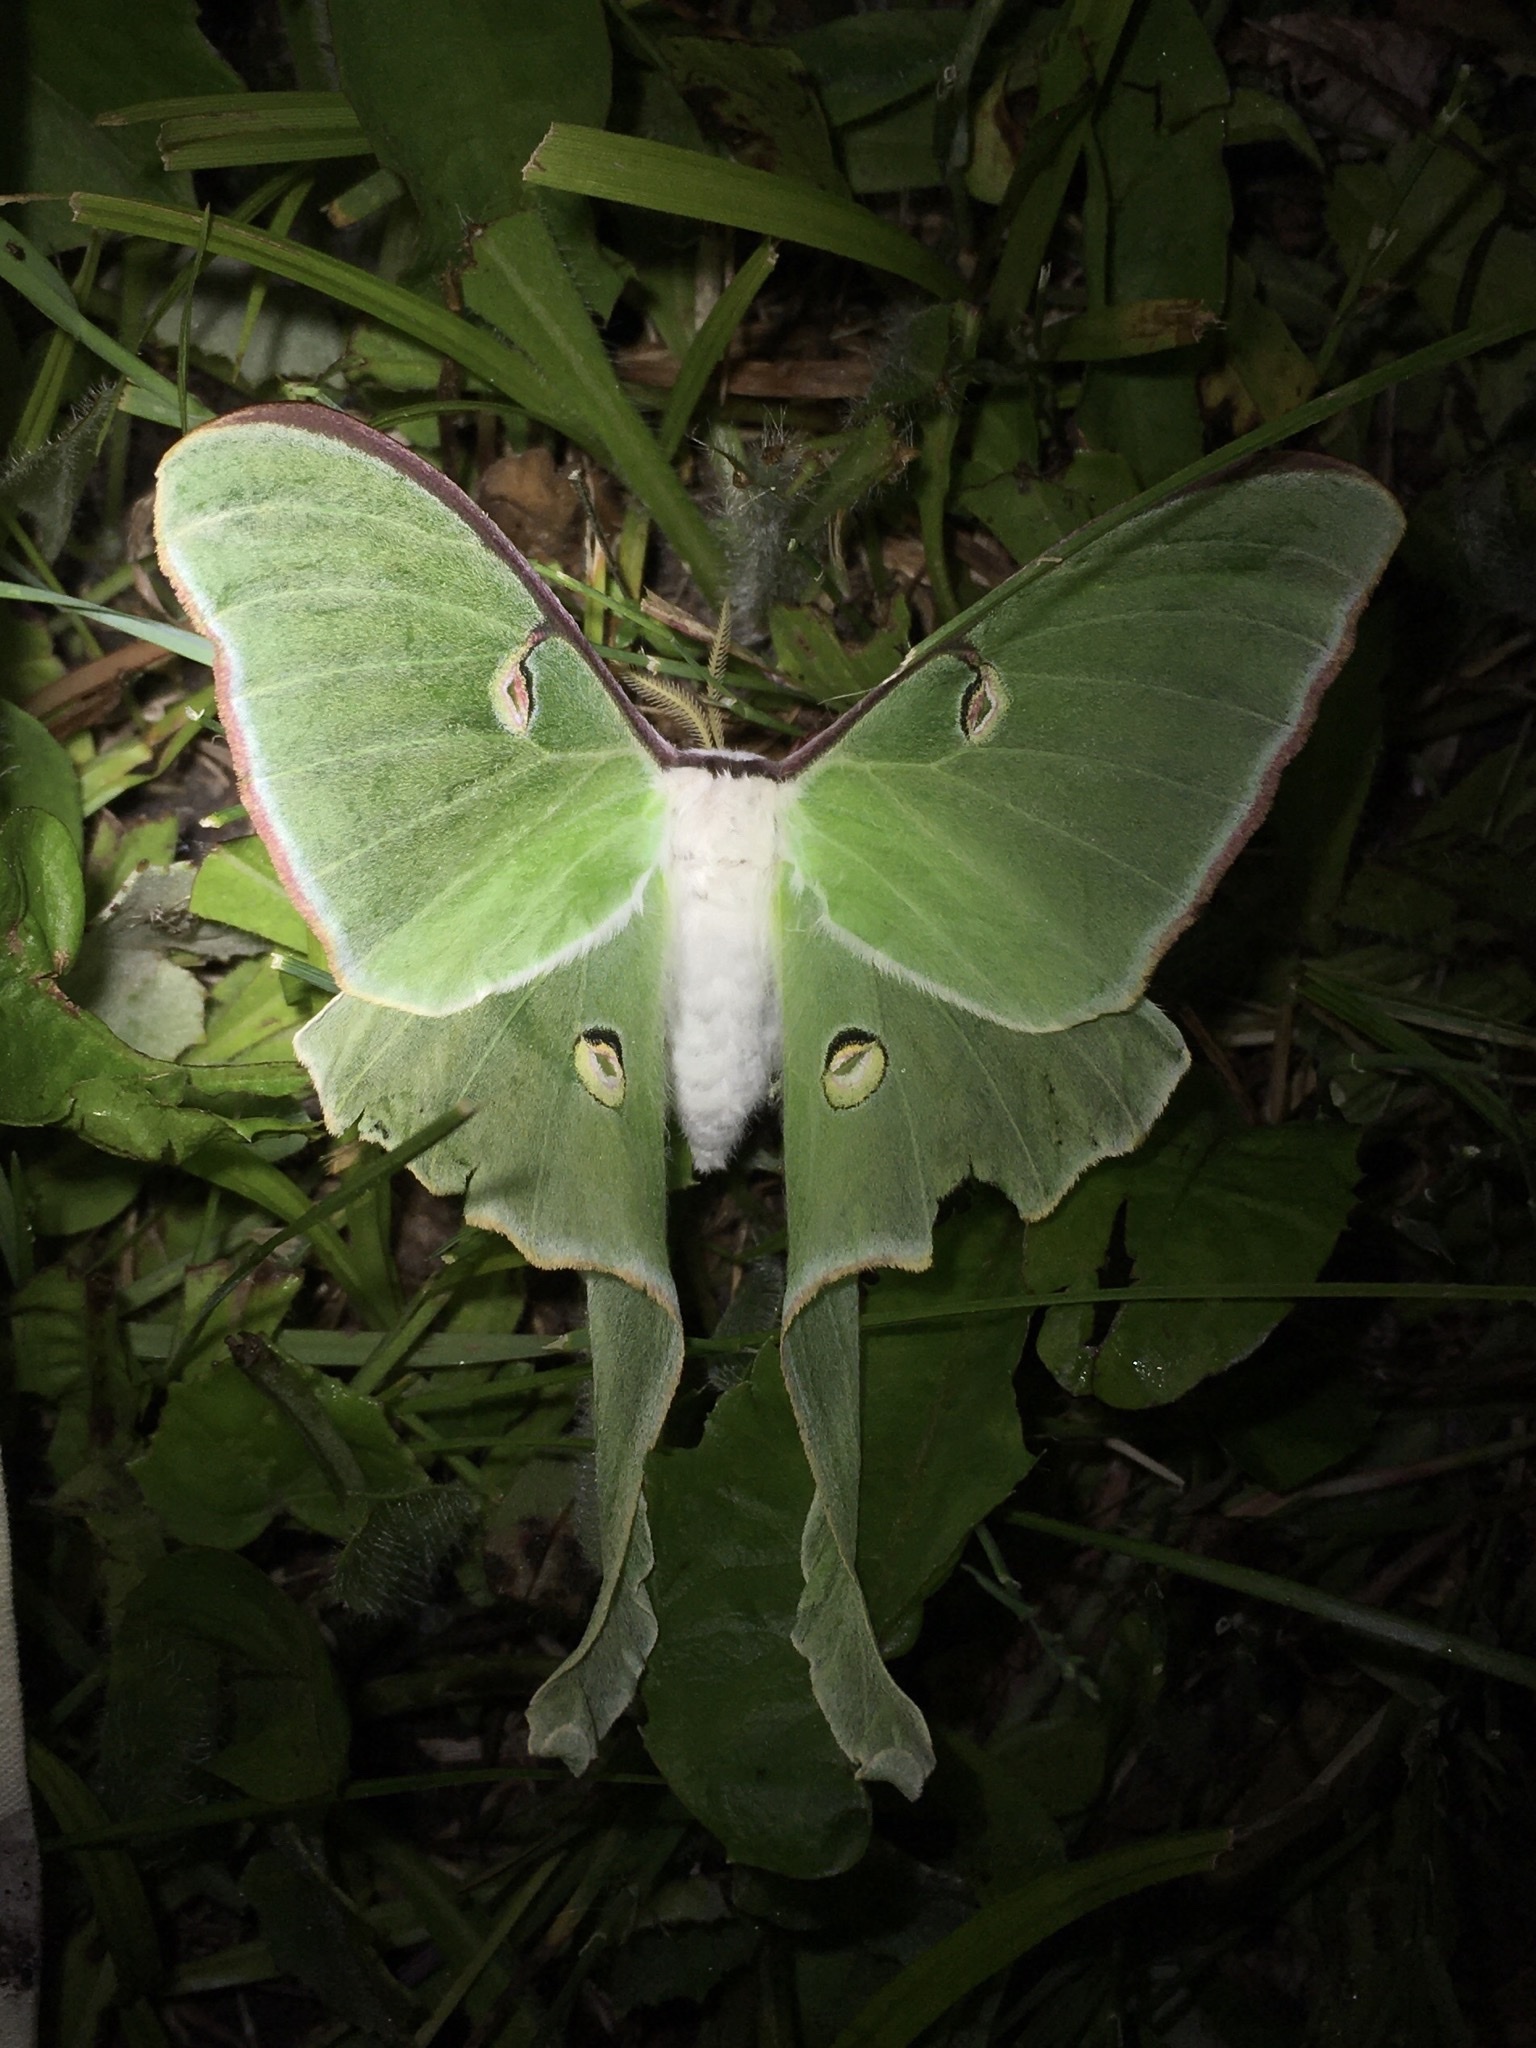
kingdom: Animalia
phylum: Arthropoda
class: Insecta
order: Lepidoptera
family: Saturniidae
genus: Actias
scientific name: Actias luna
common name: Luna moth
